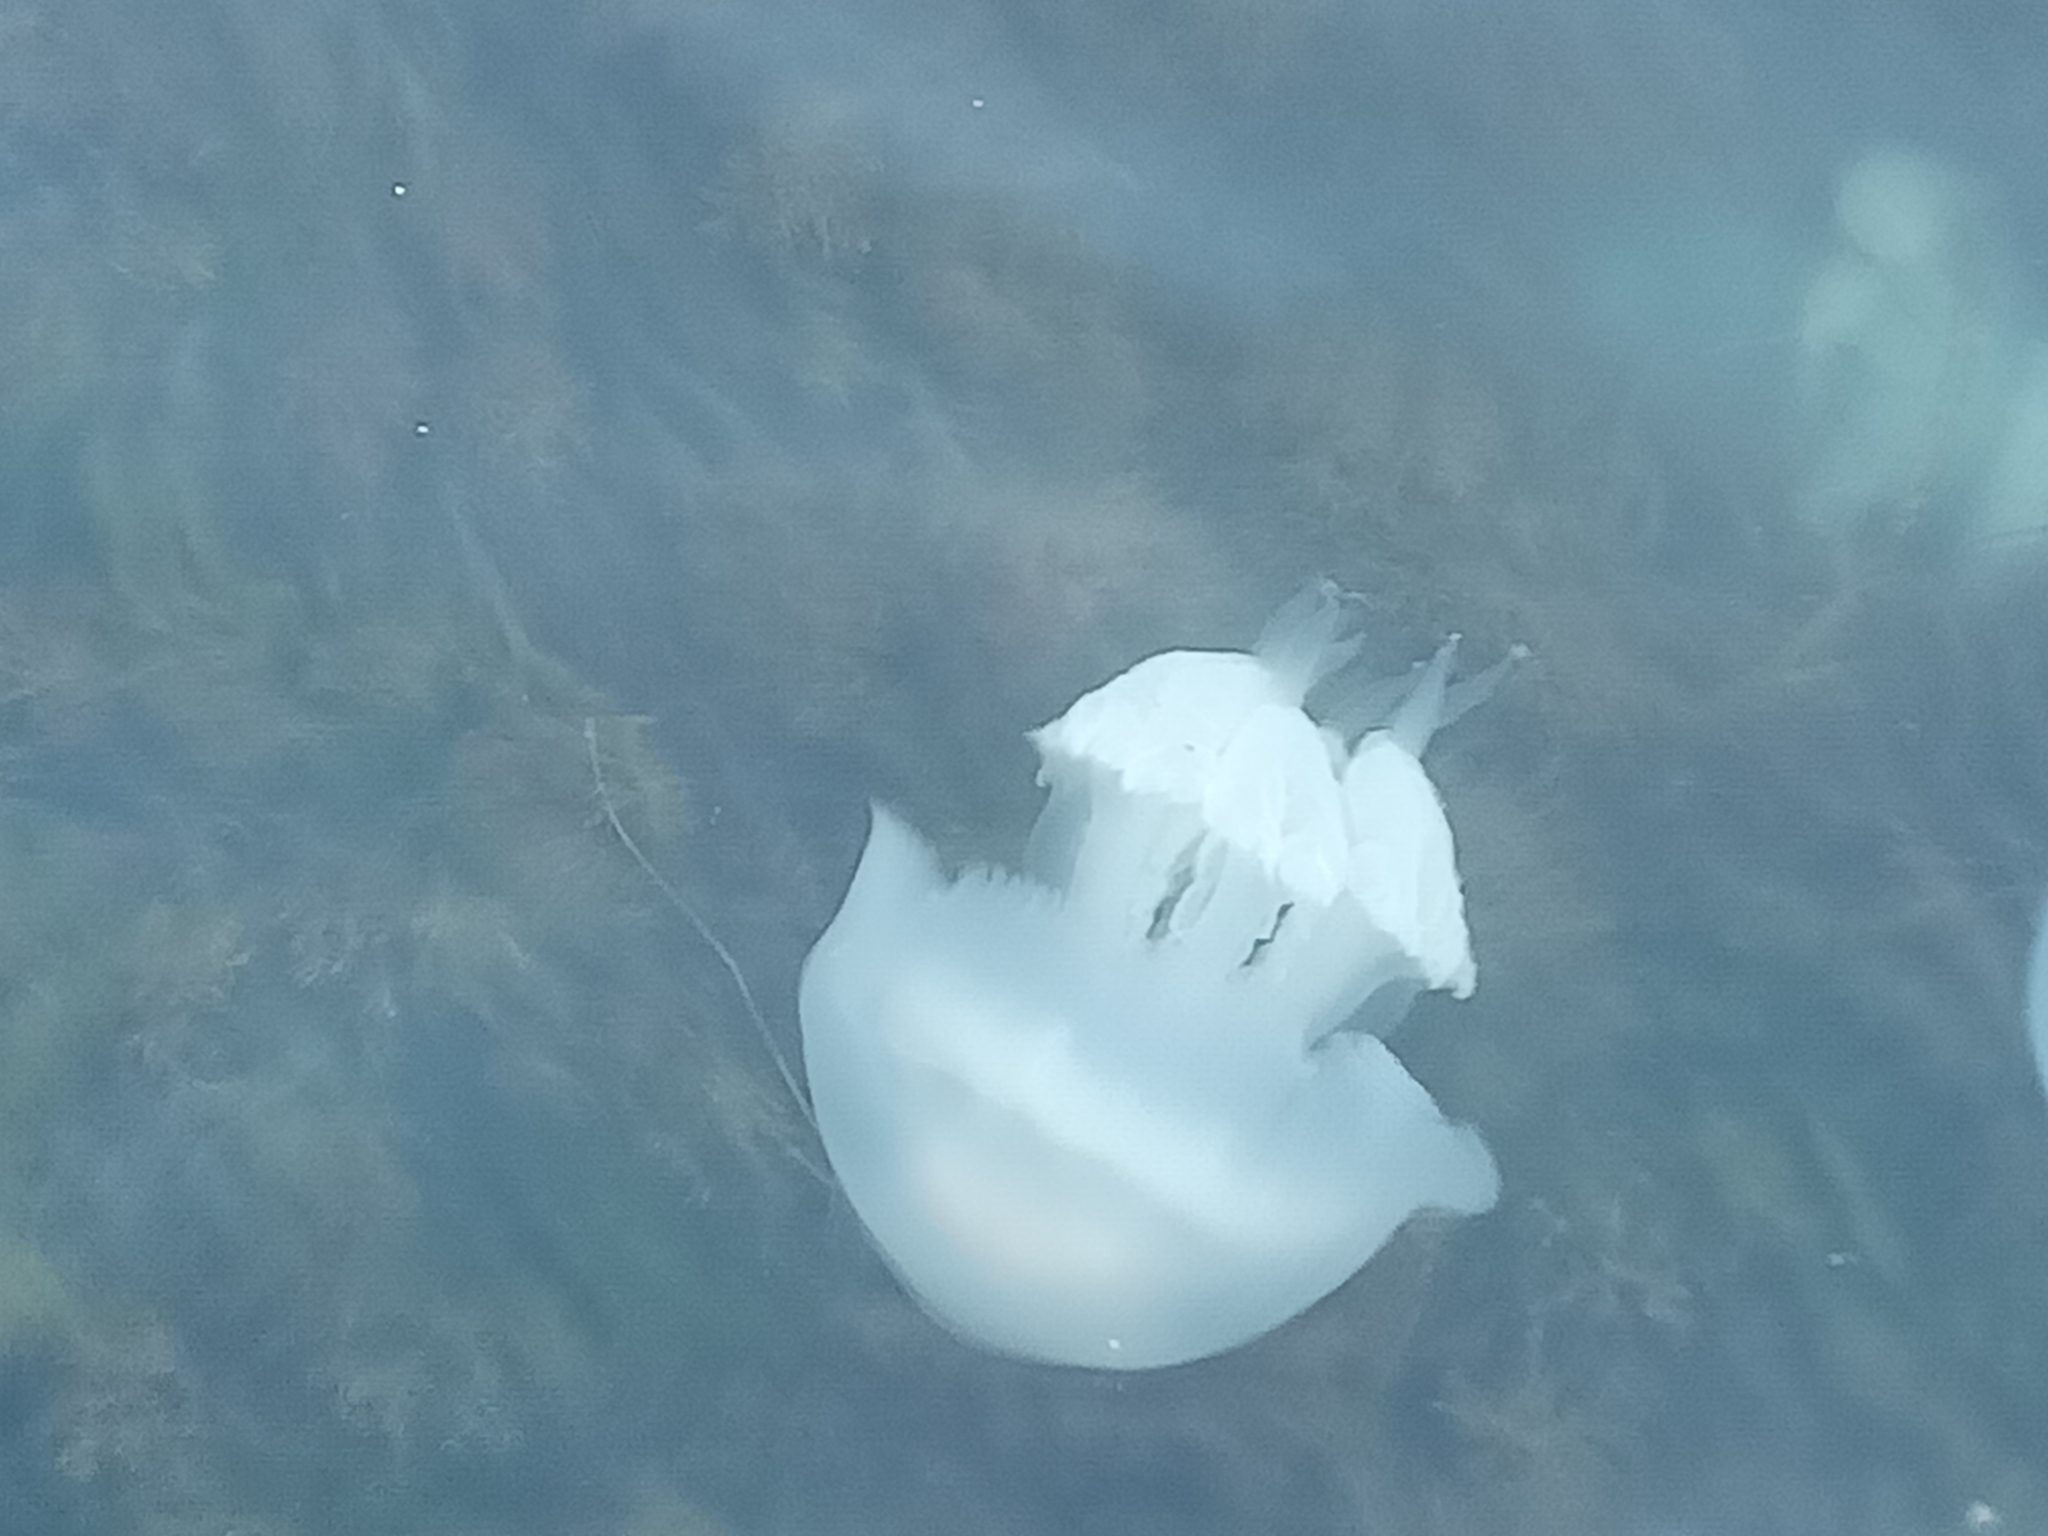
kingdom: Animalia
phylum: Cnidaria
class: Scyphozoa
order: Rhizostomeae
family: Rhizostomatidae
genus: Rhizostoma
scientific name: Rhizostoma pulmo
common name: Barrel jellyfish
